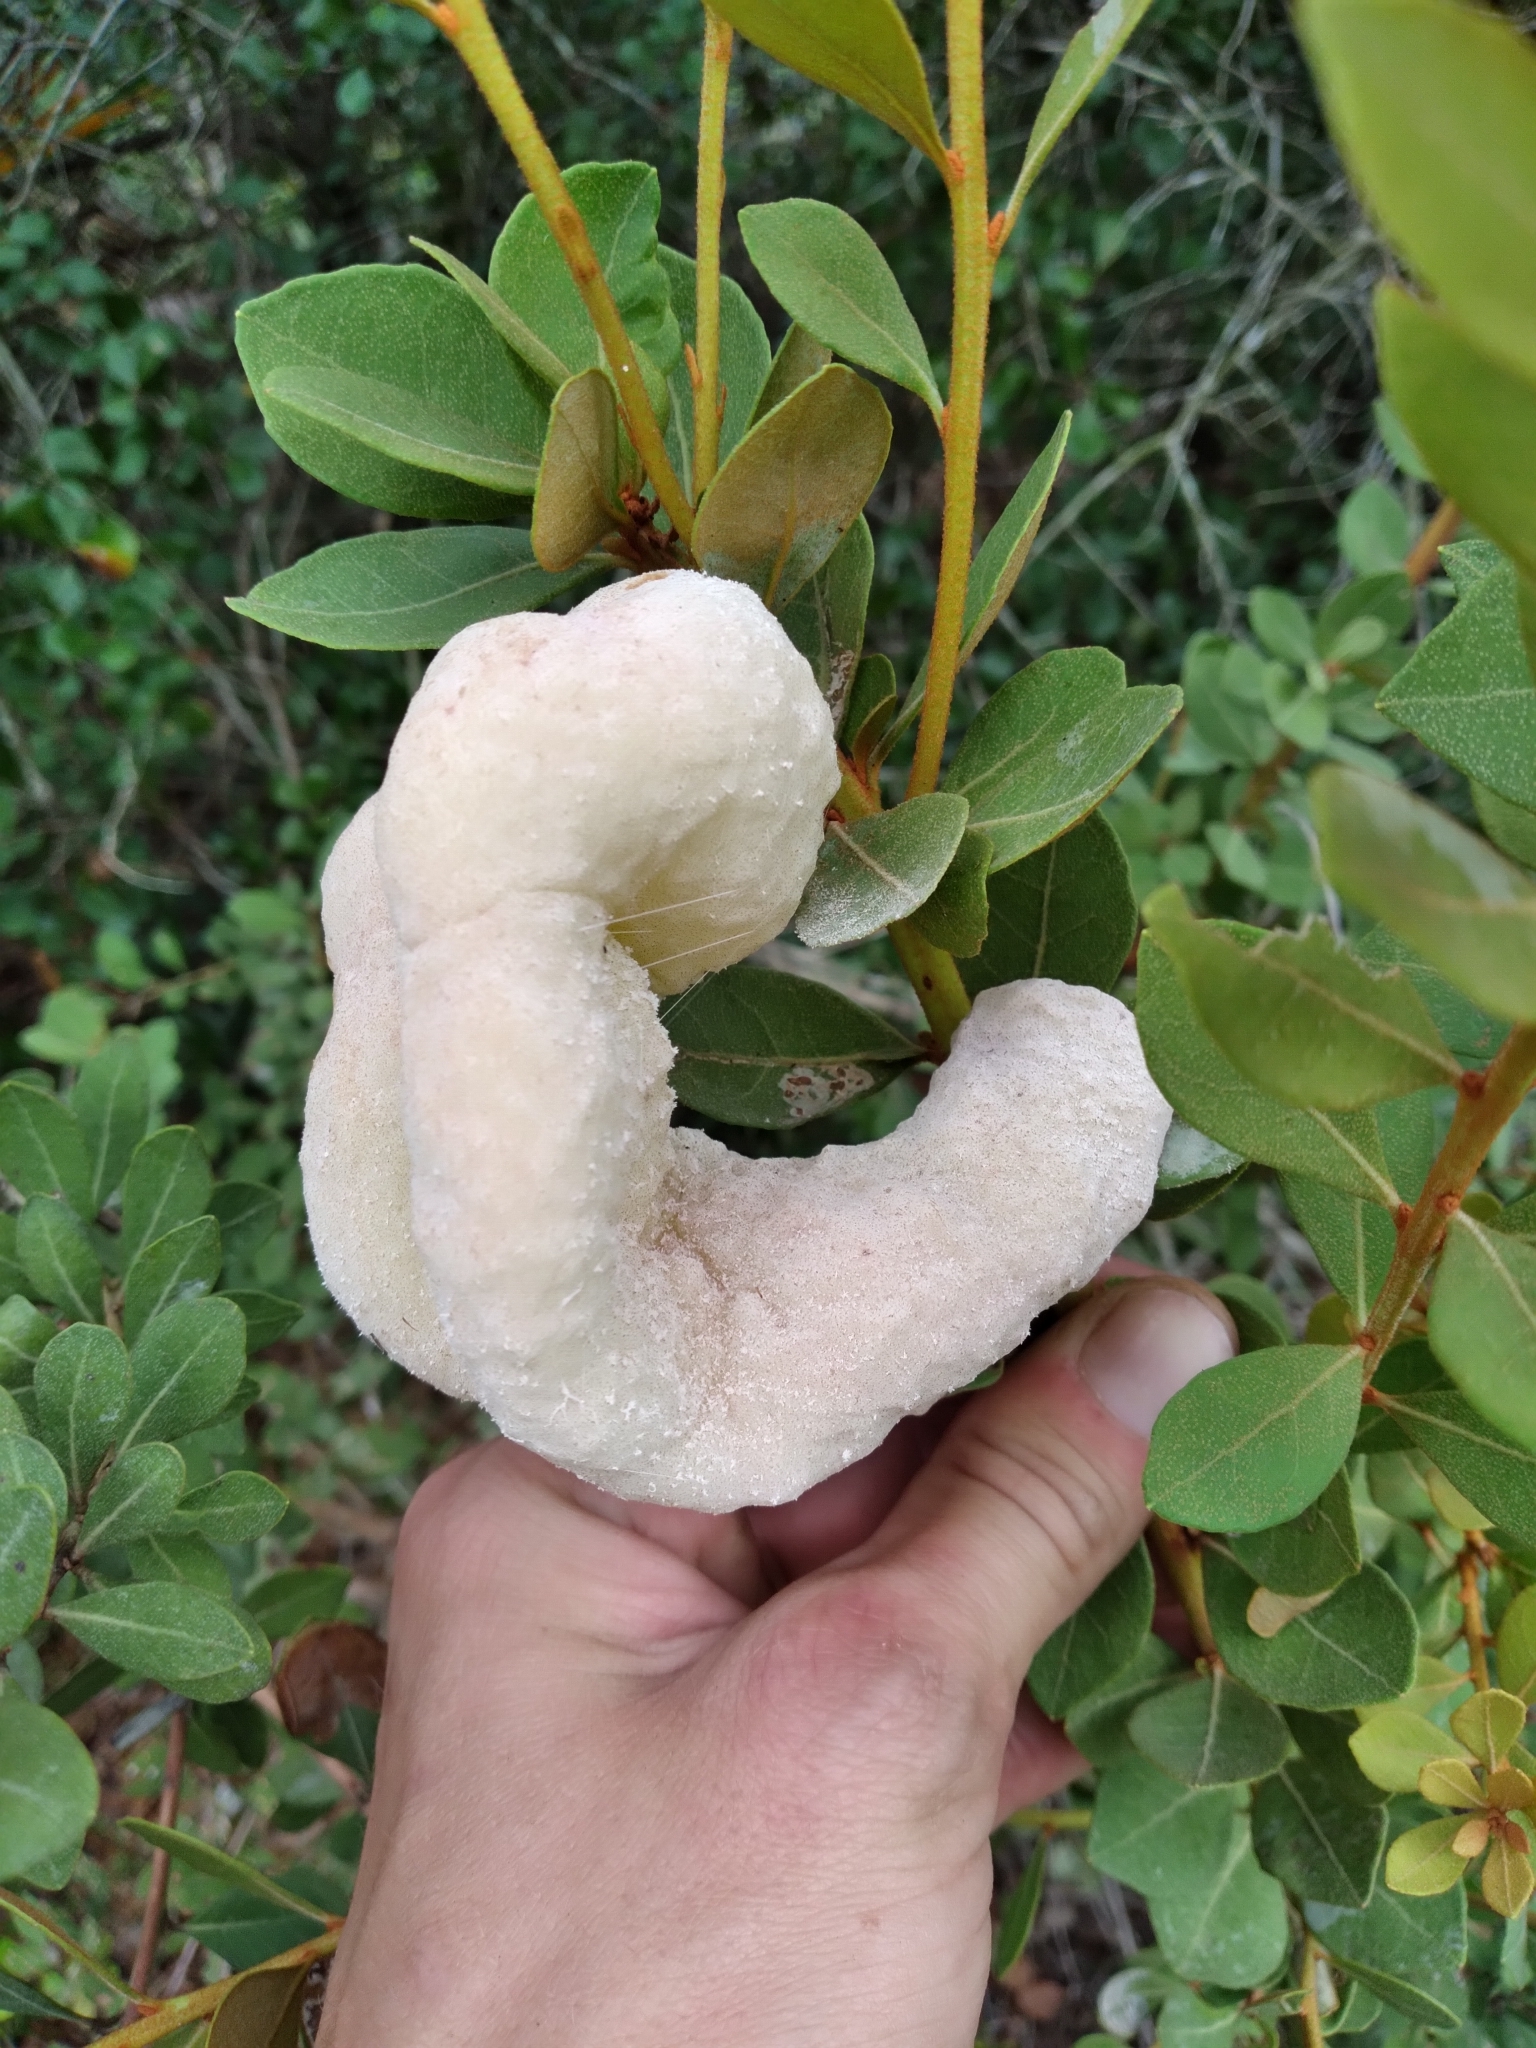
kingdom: Fungi
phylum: Basidiomycota
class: Exobasidiomycetes
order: Exobasidiales
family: Exobasidiaceae
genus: Exobasidium
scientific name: Exobasidium ferrugineae
